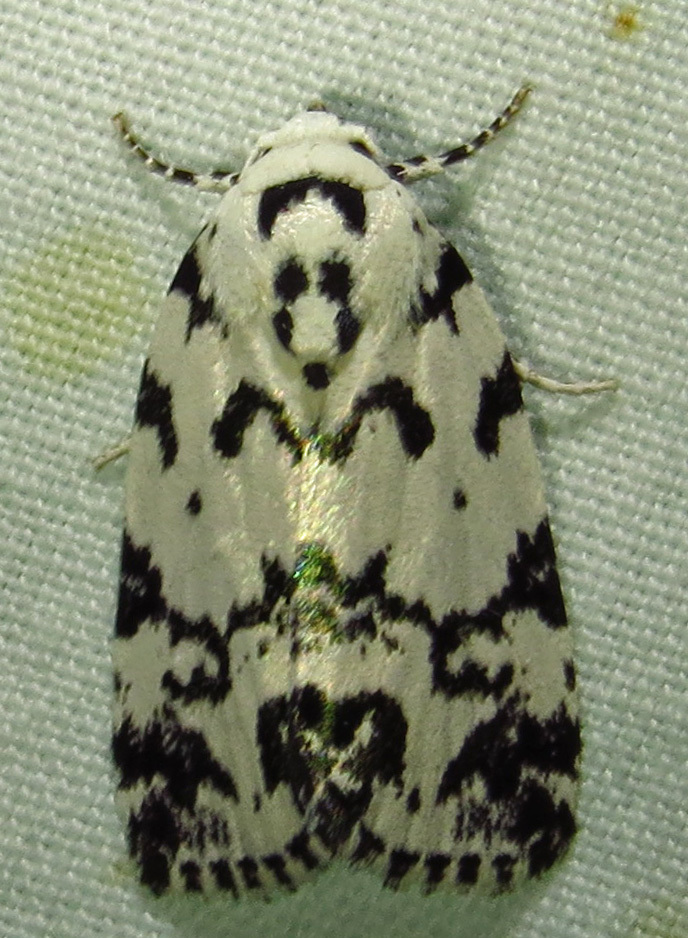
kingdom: Animalia
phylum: Arthropoda
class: Insecta
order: Lepidoptera
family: Noctuidae
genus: Polygrammate
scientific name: Polygrammate hebraeicum
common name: Hebrew moth
